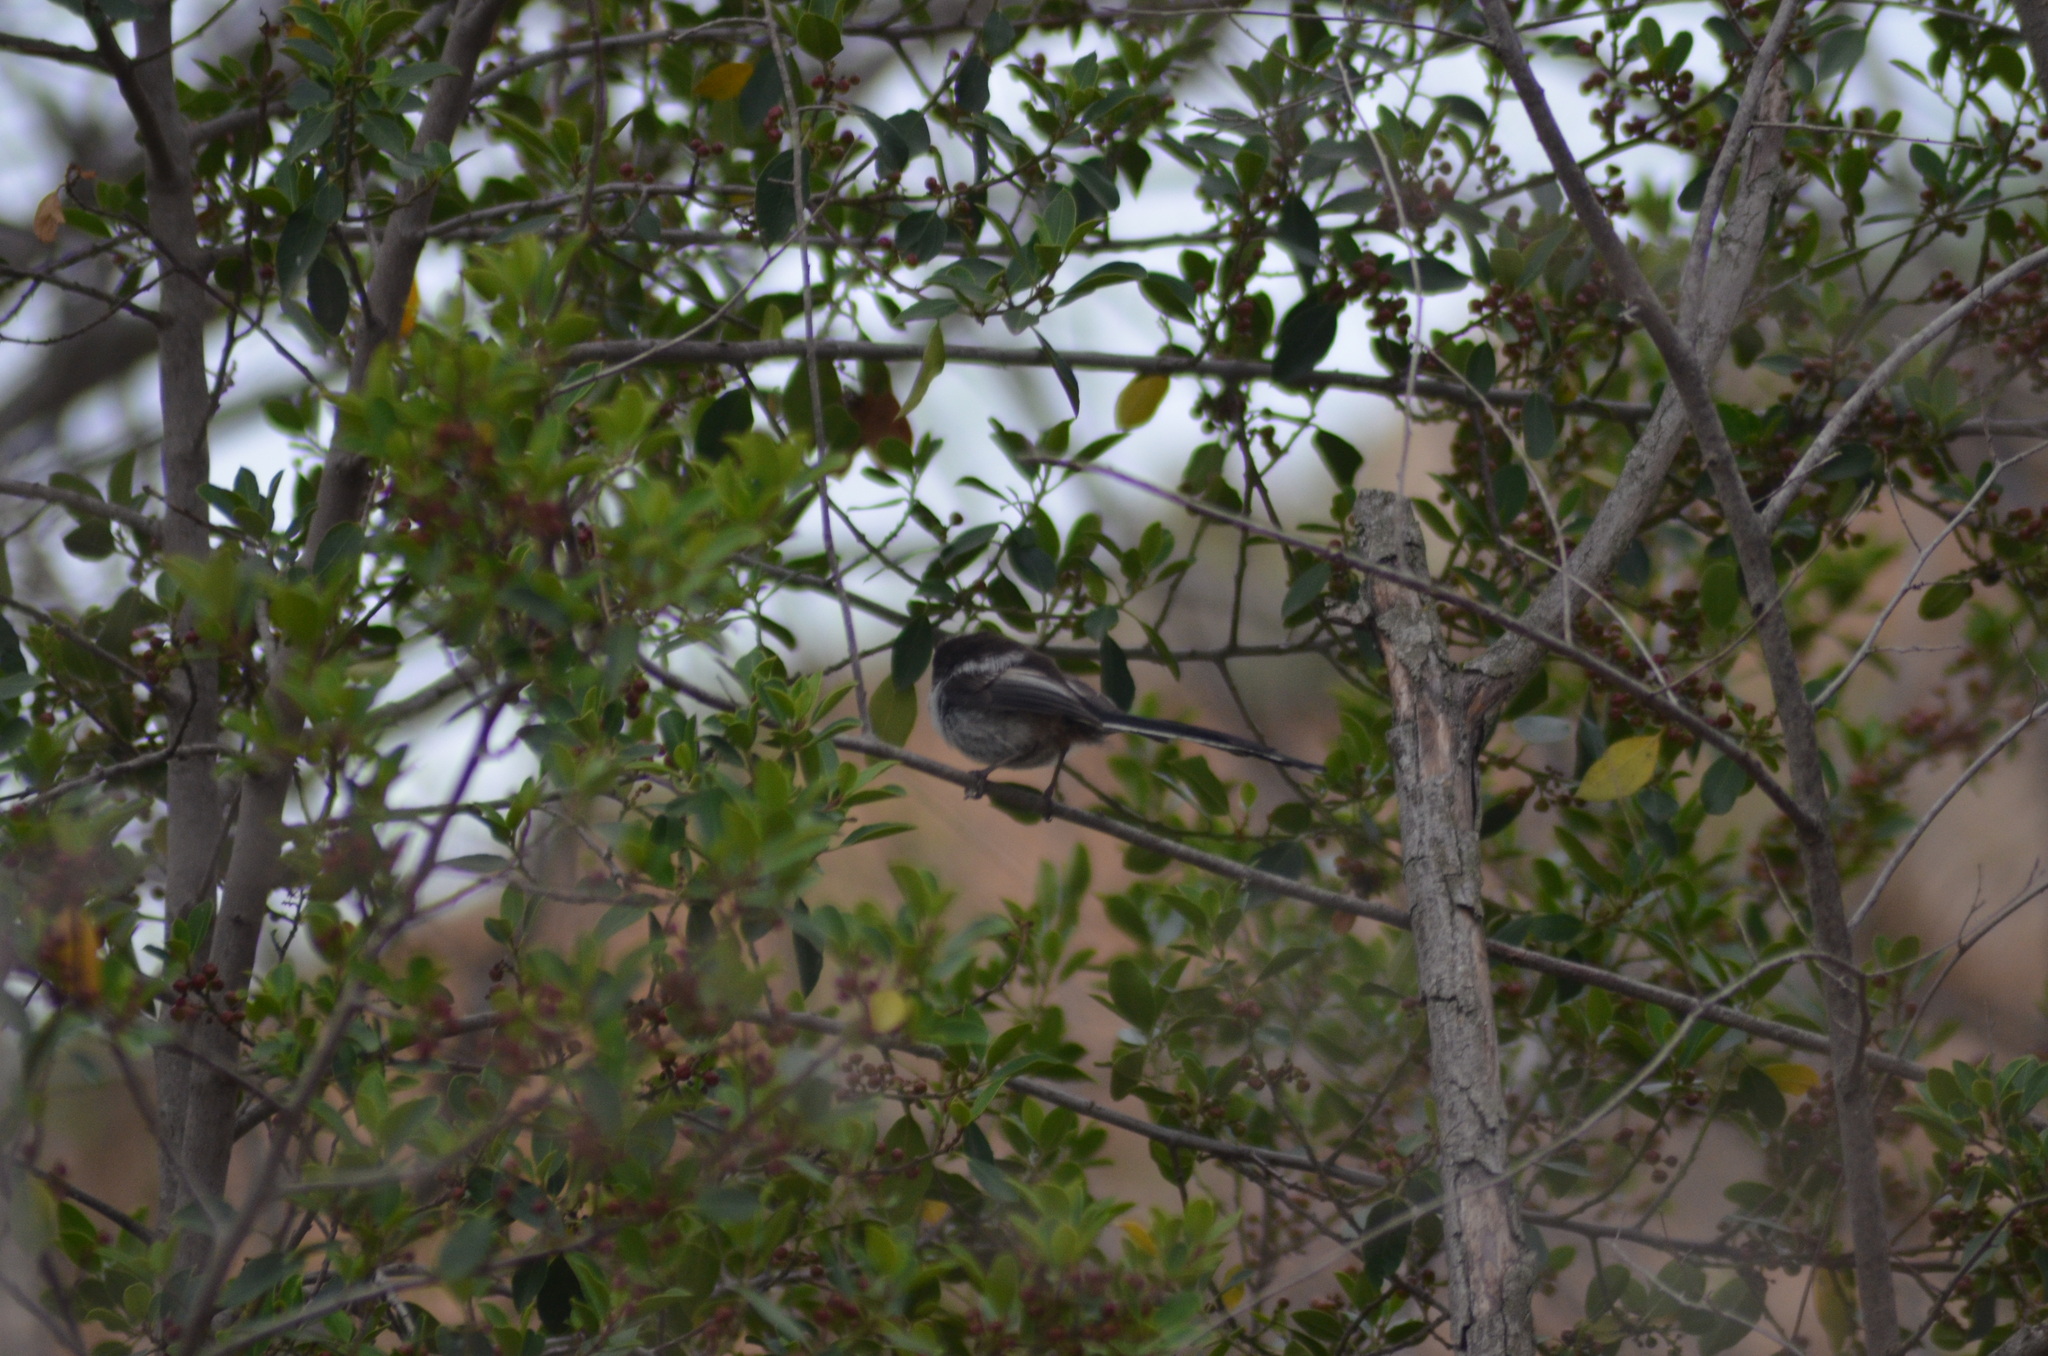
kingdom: Animalia
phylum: Chordata
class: Aves
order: Passeriformes
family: Aegithalidae
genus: Aegithalos
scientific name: Aegithalos caudatus
